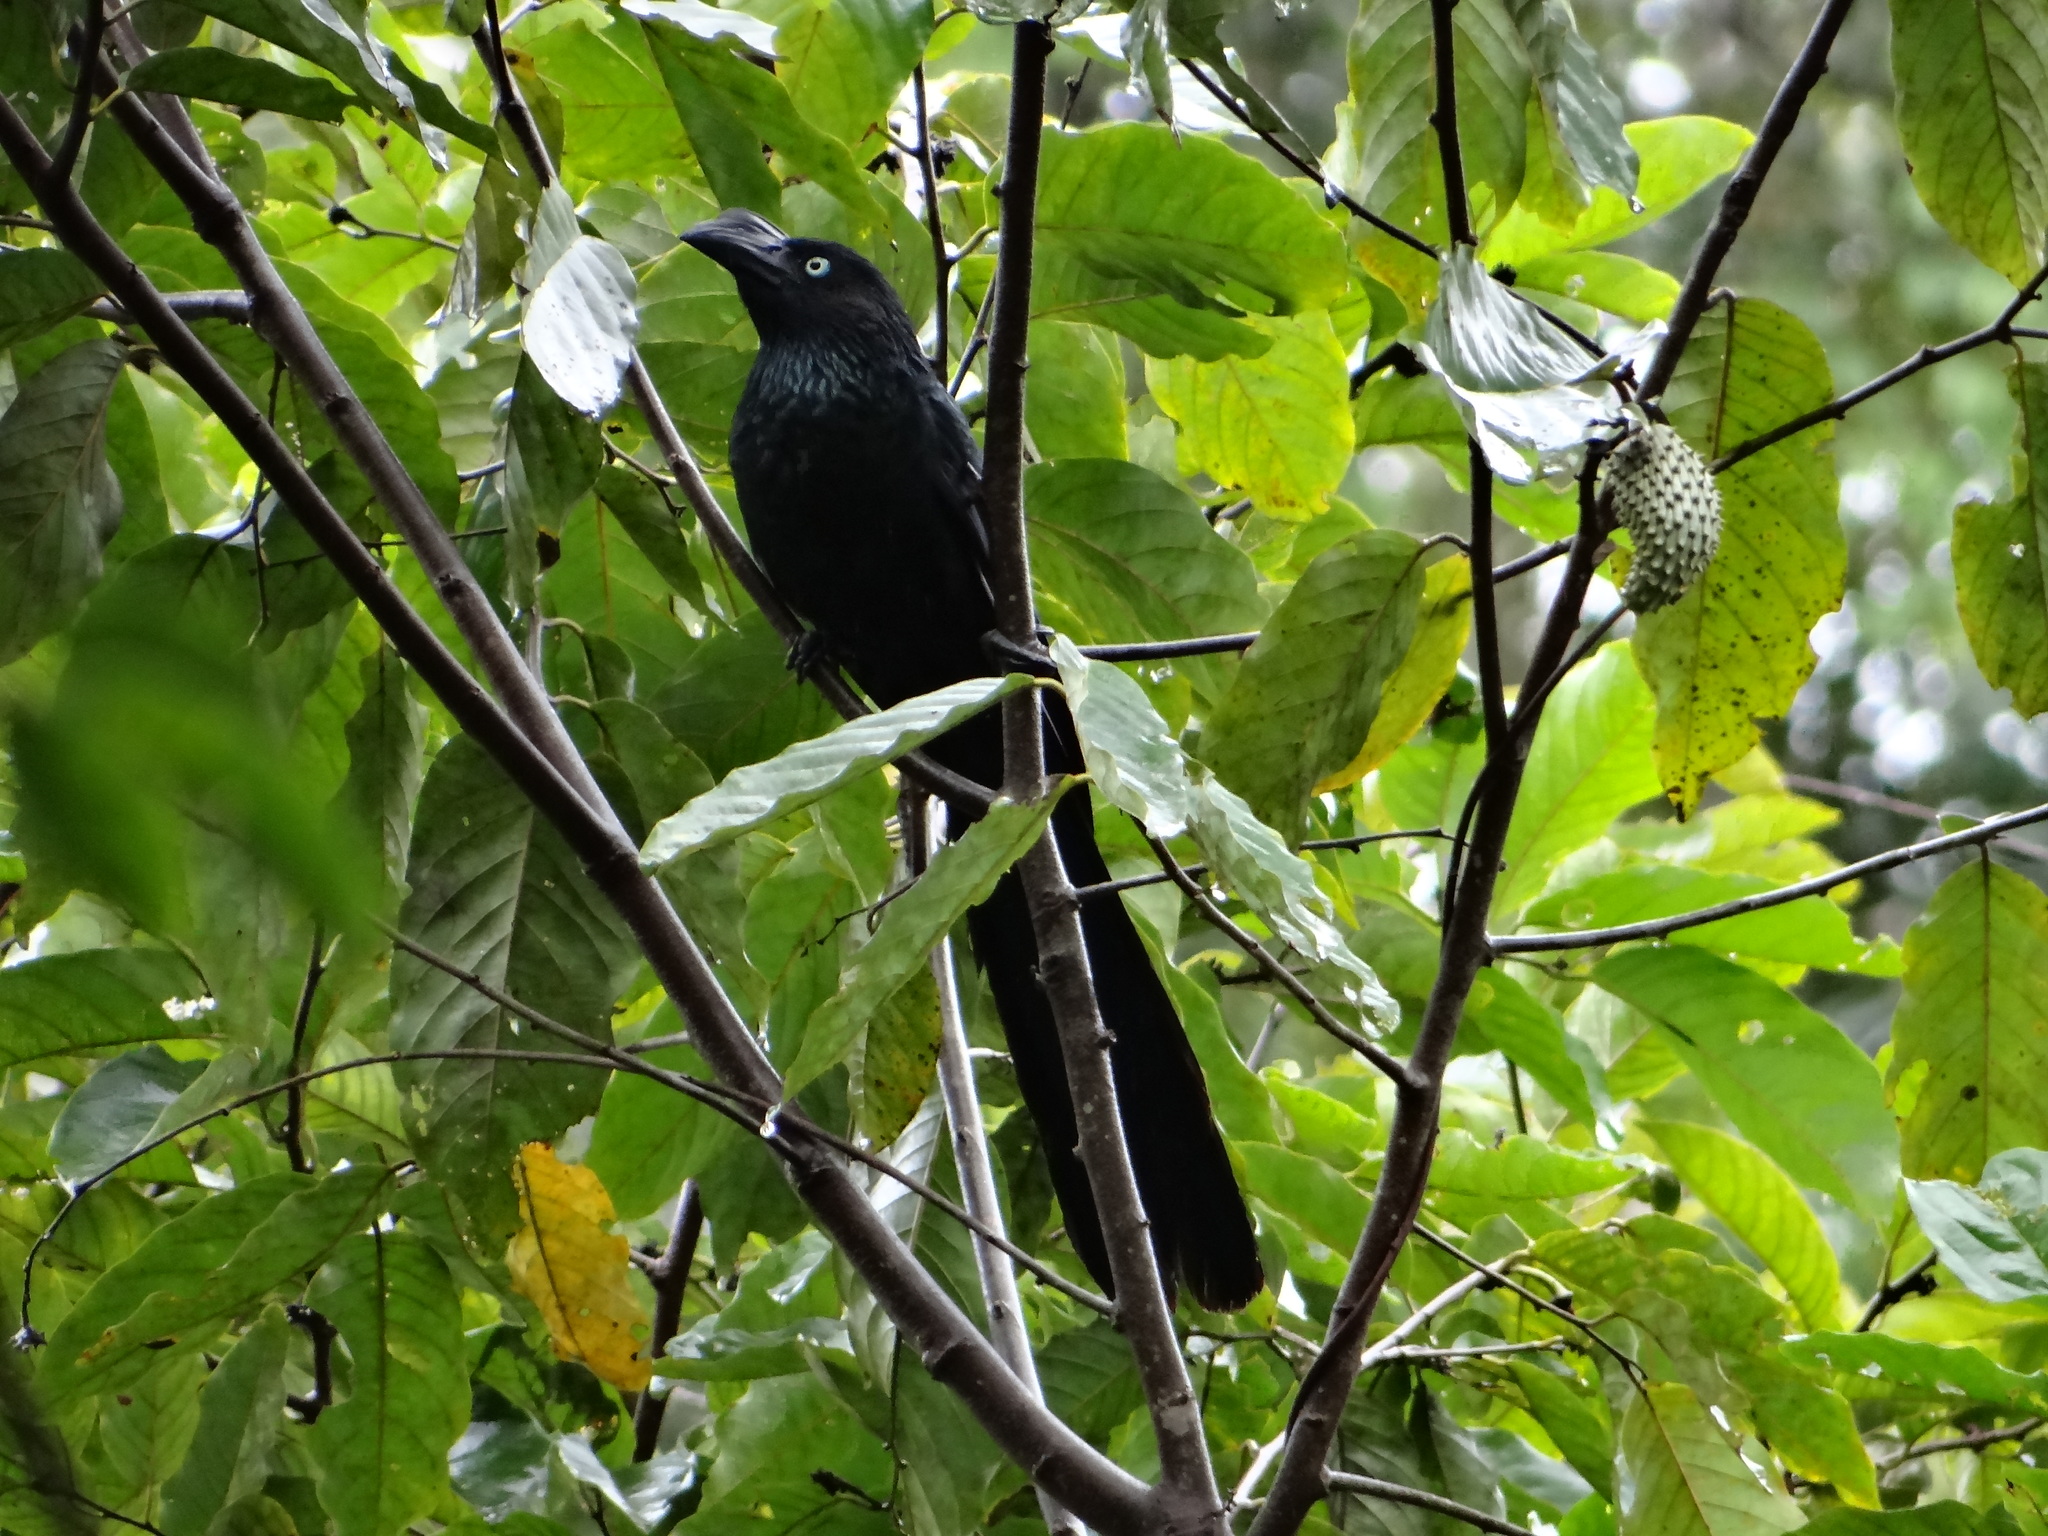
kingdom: Animalia
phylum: Chordata
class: Aves
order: Cuculiformes
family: Cuculidae
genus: Crotophaga
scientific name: Crotophaga major
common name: Greater ani
